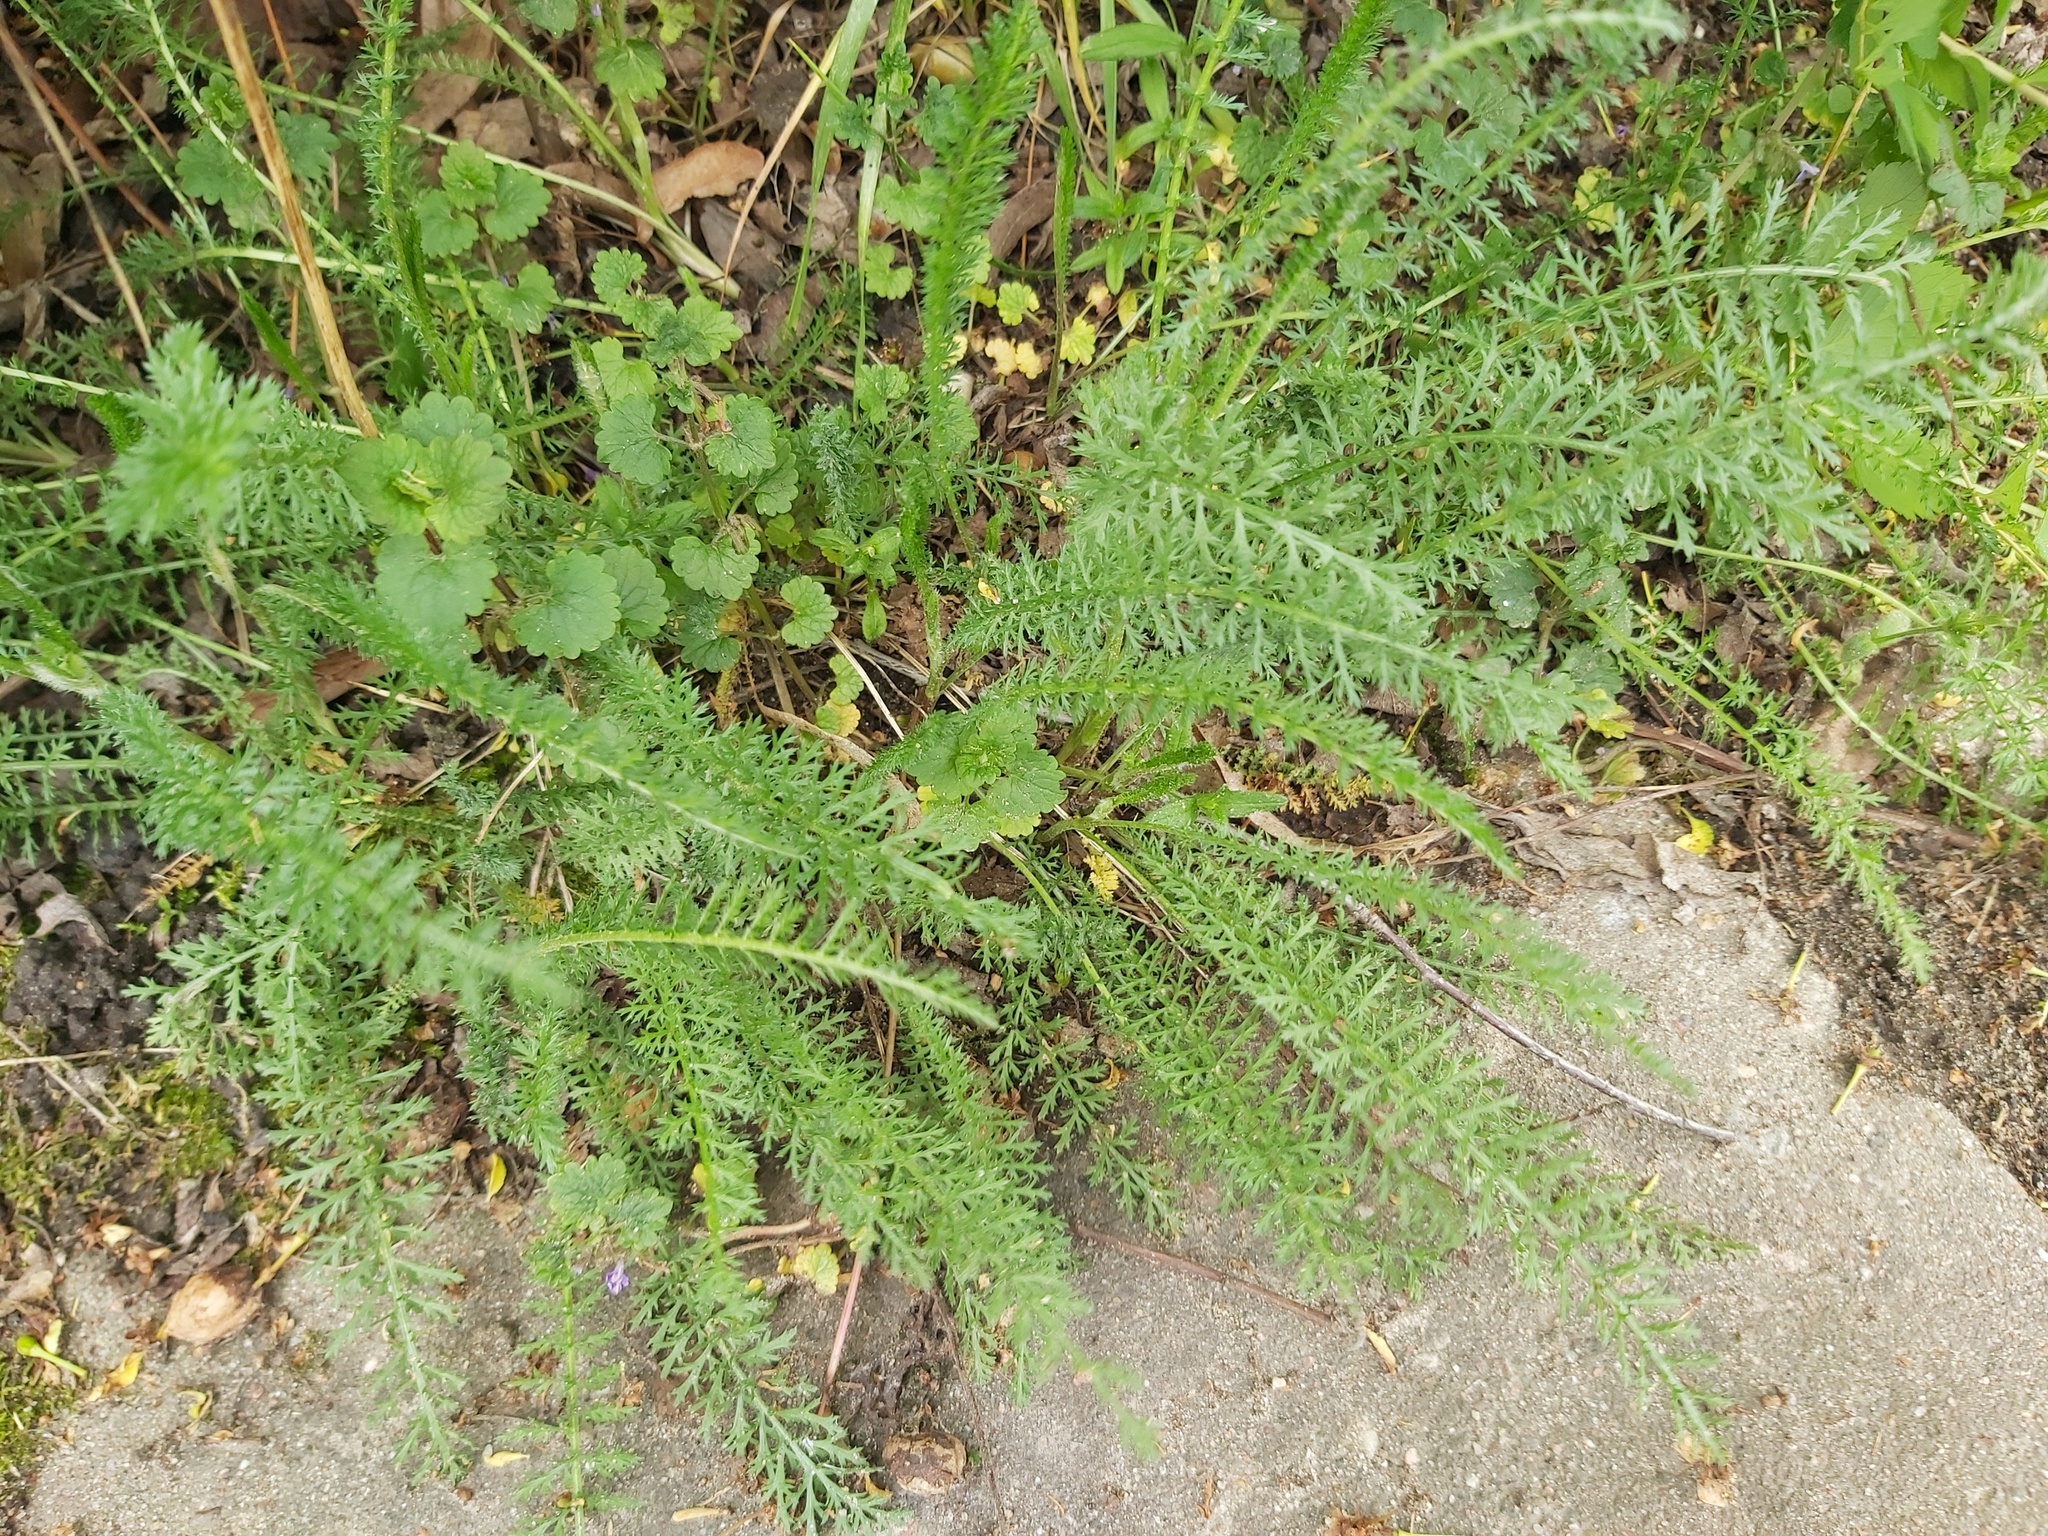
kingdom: Plantae
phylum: Tracheophyta
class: Magnoliopsida
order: Asterales
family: Asteraceae
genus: Achillea
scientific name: Achillea millefolium
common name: Yarrow
